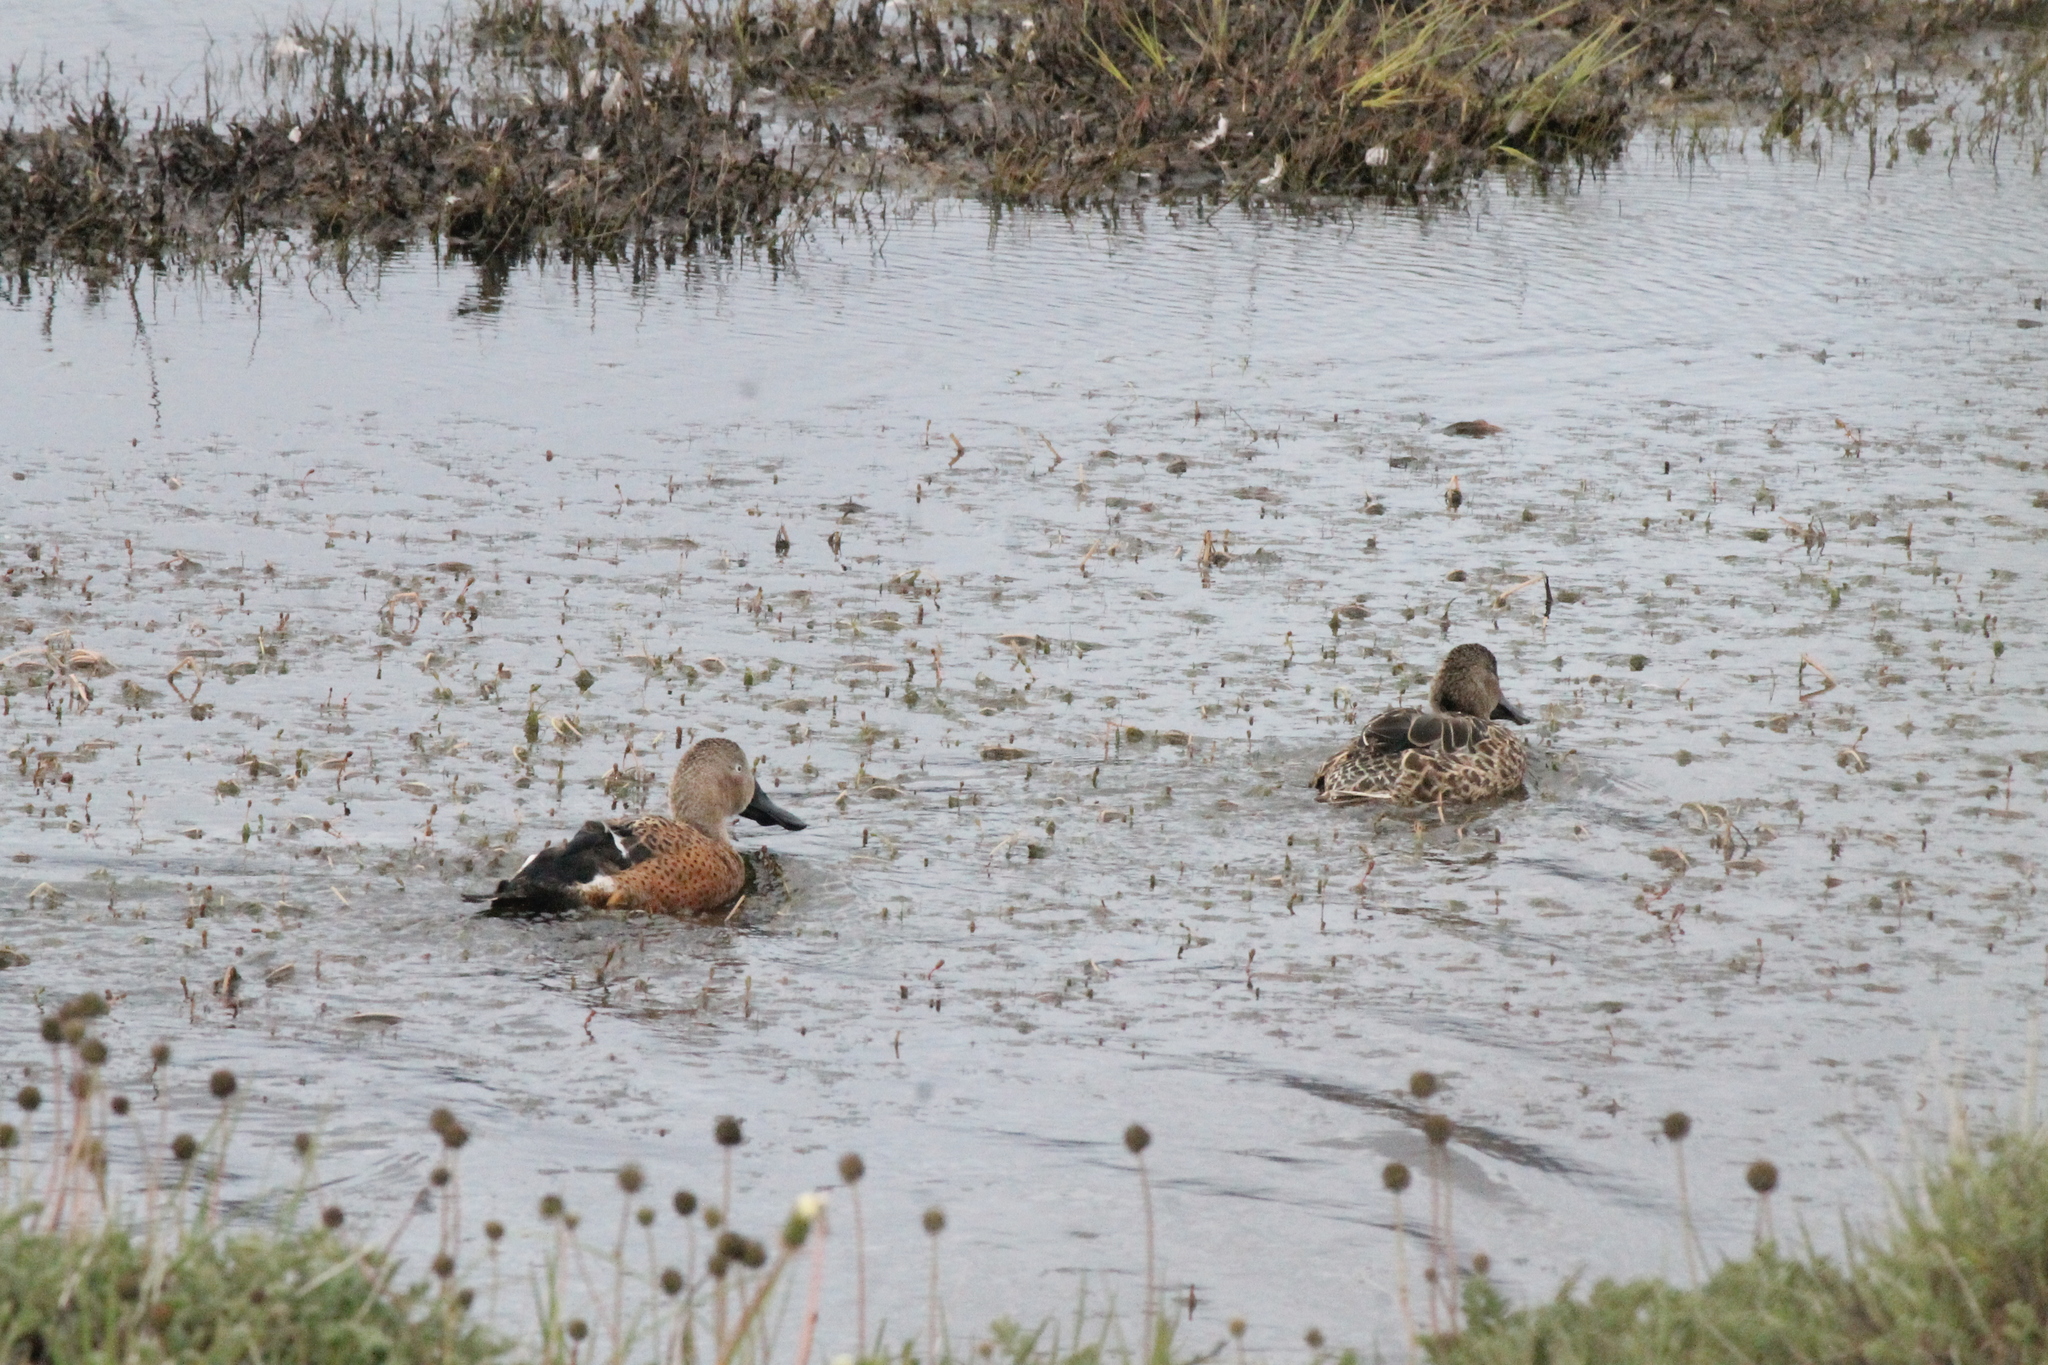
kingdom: Animalia
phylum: Chordata
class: Aves
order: Anseriformes
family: Anatidae
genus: Spatula
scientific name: Spatula platalea
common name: Red shoveler
